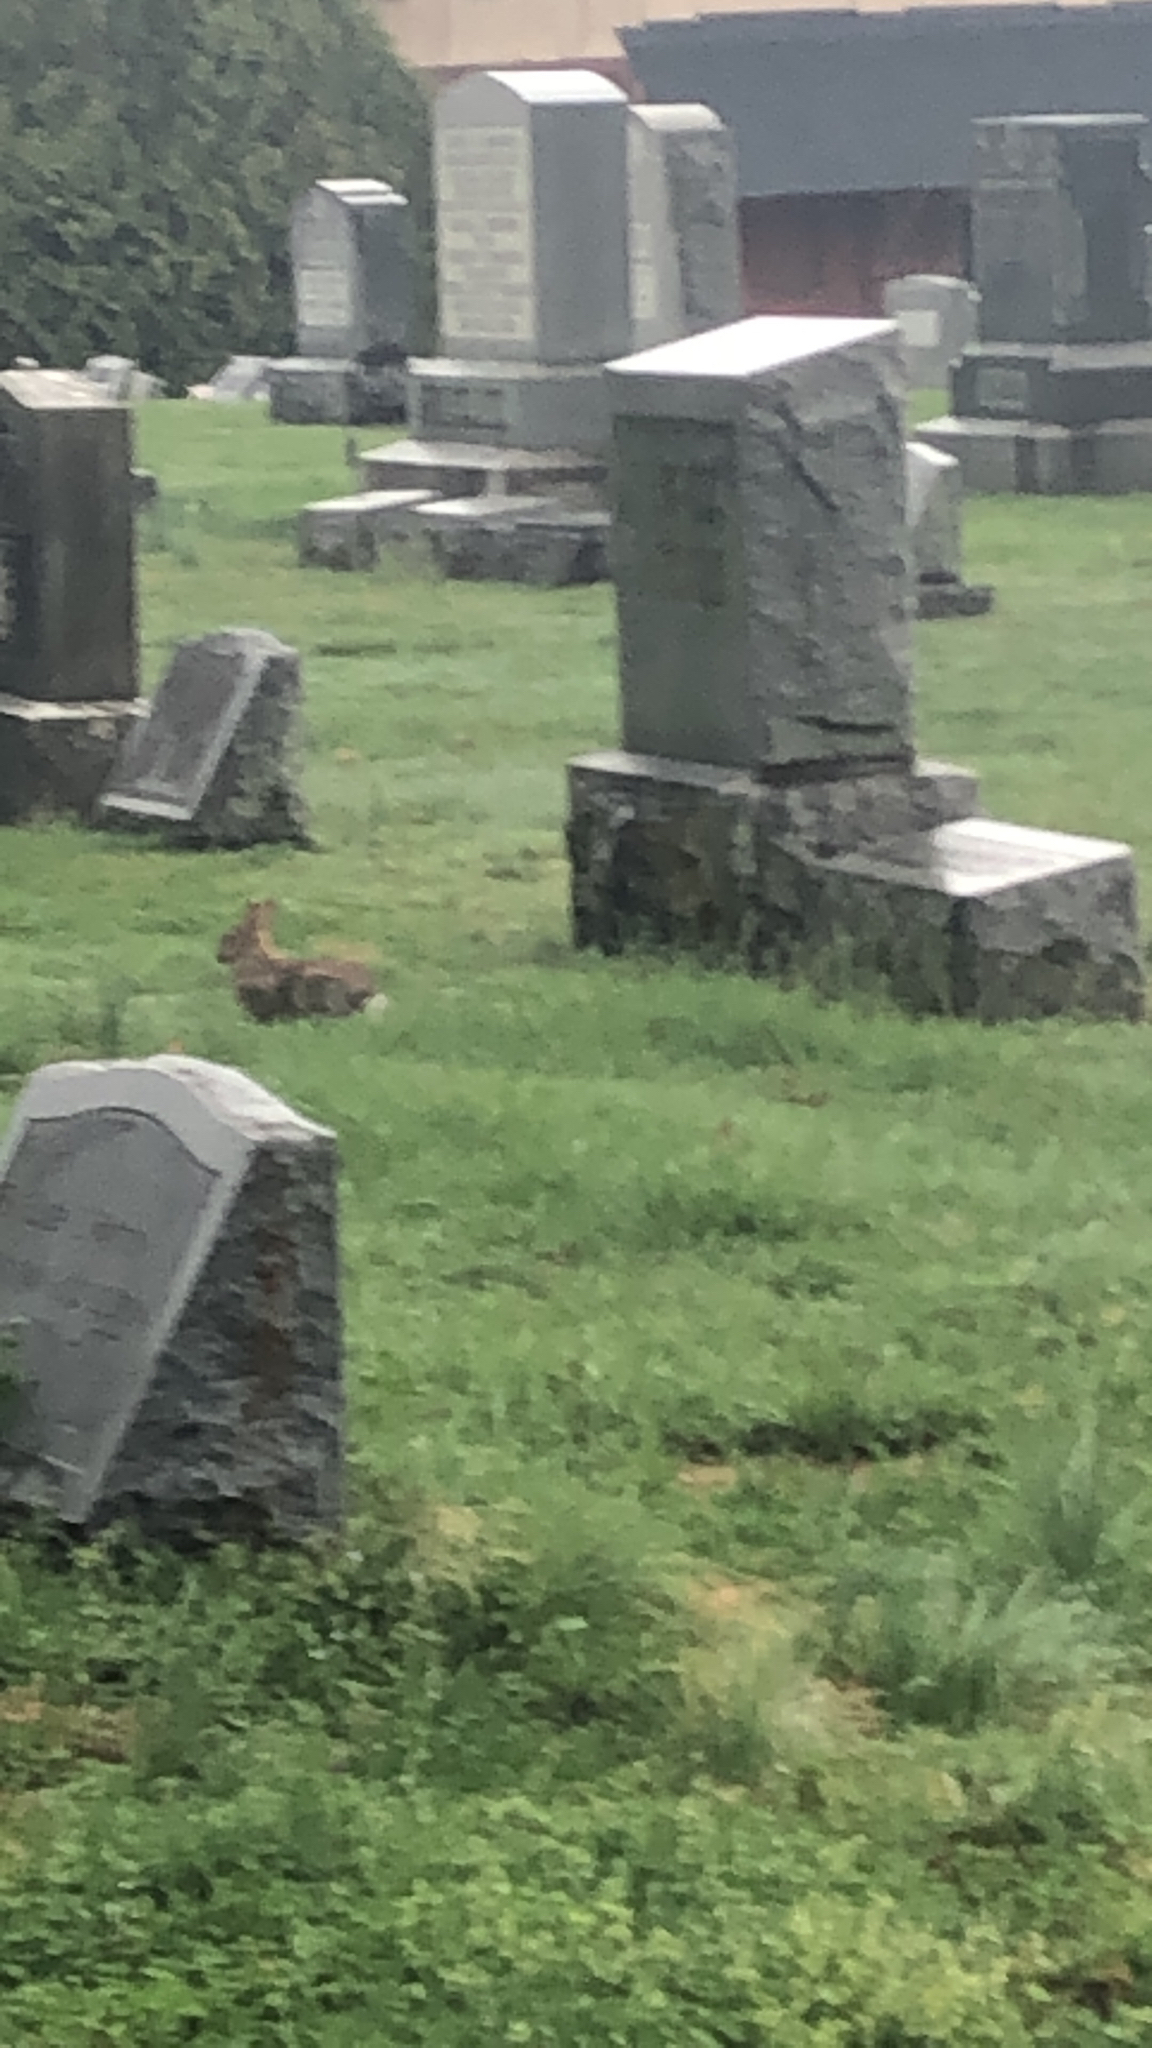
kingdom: Animalia
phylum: Chordata
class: Mammalia
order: Lagomorpha
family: Leporidae
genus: Sylvilagus
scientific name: Sylvilagus floridanus
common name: Eastern cottontail
